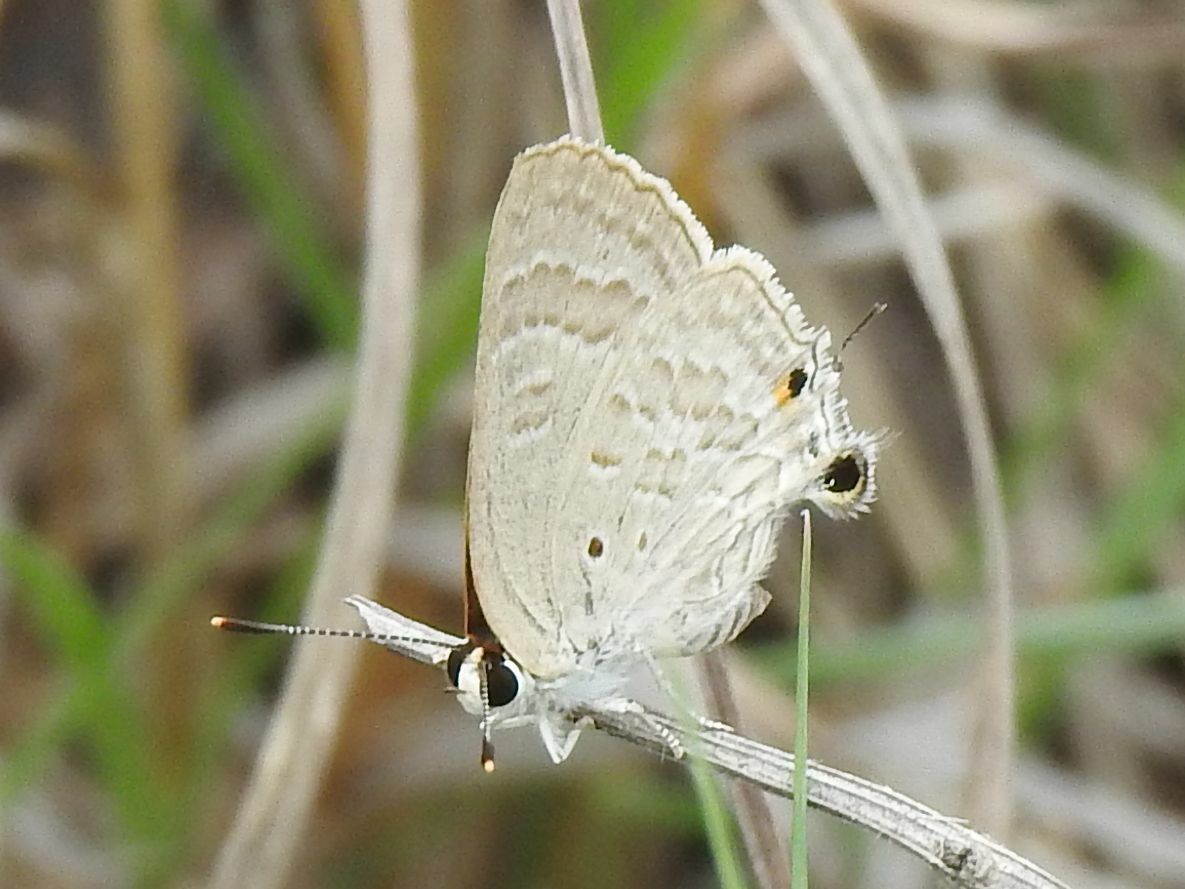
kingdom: Animalia
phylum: Arthropoda
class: Insecta
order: Lepidoptera
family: Lycaenidae
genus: Deudorix
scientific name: Deudorix antalus
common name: Brown playboy
